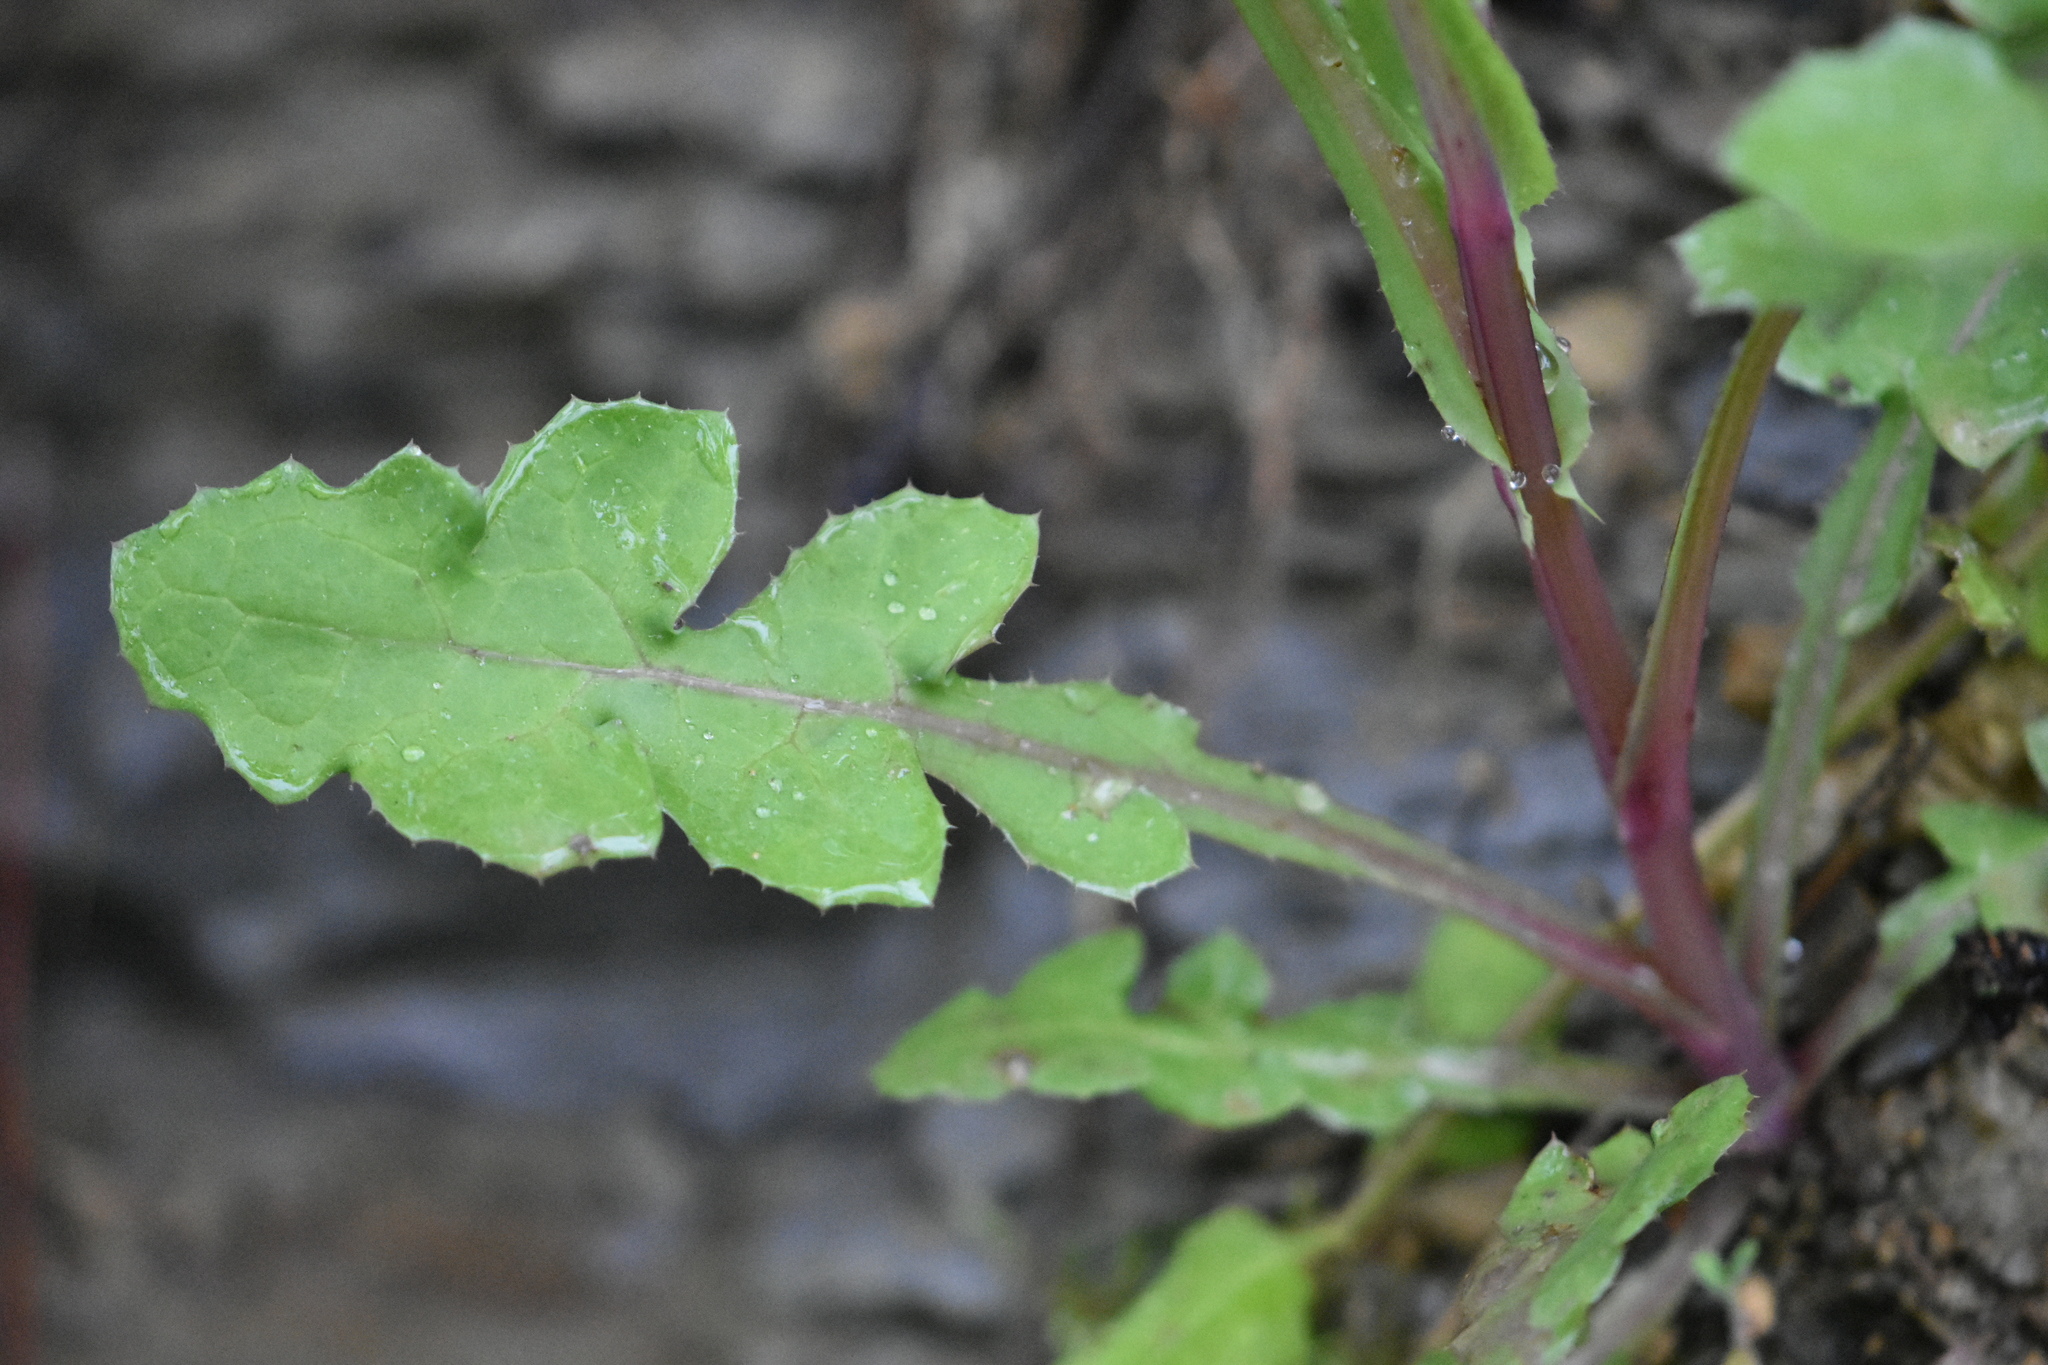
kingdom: Plantae
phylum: Tracheophyta
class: Magnoliopsida
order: Asterales
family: Asteraceae
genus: Sonchus
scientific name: Sonchus oleraceus
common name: Common sowthistle
